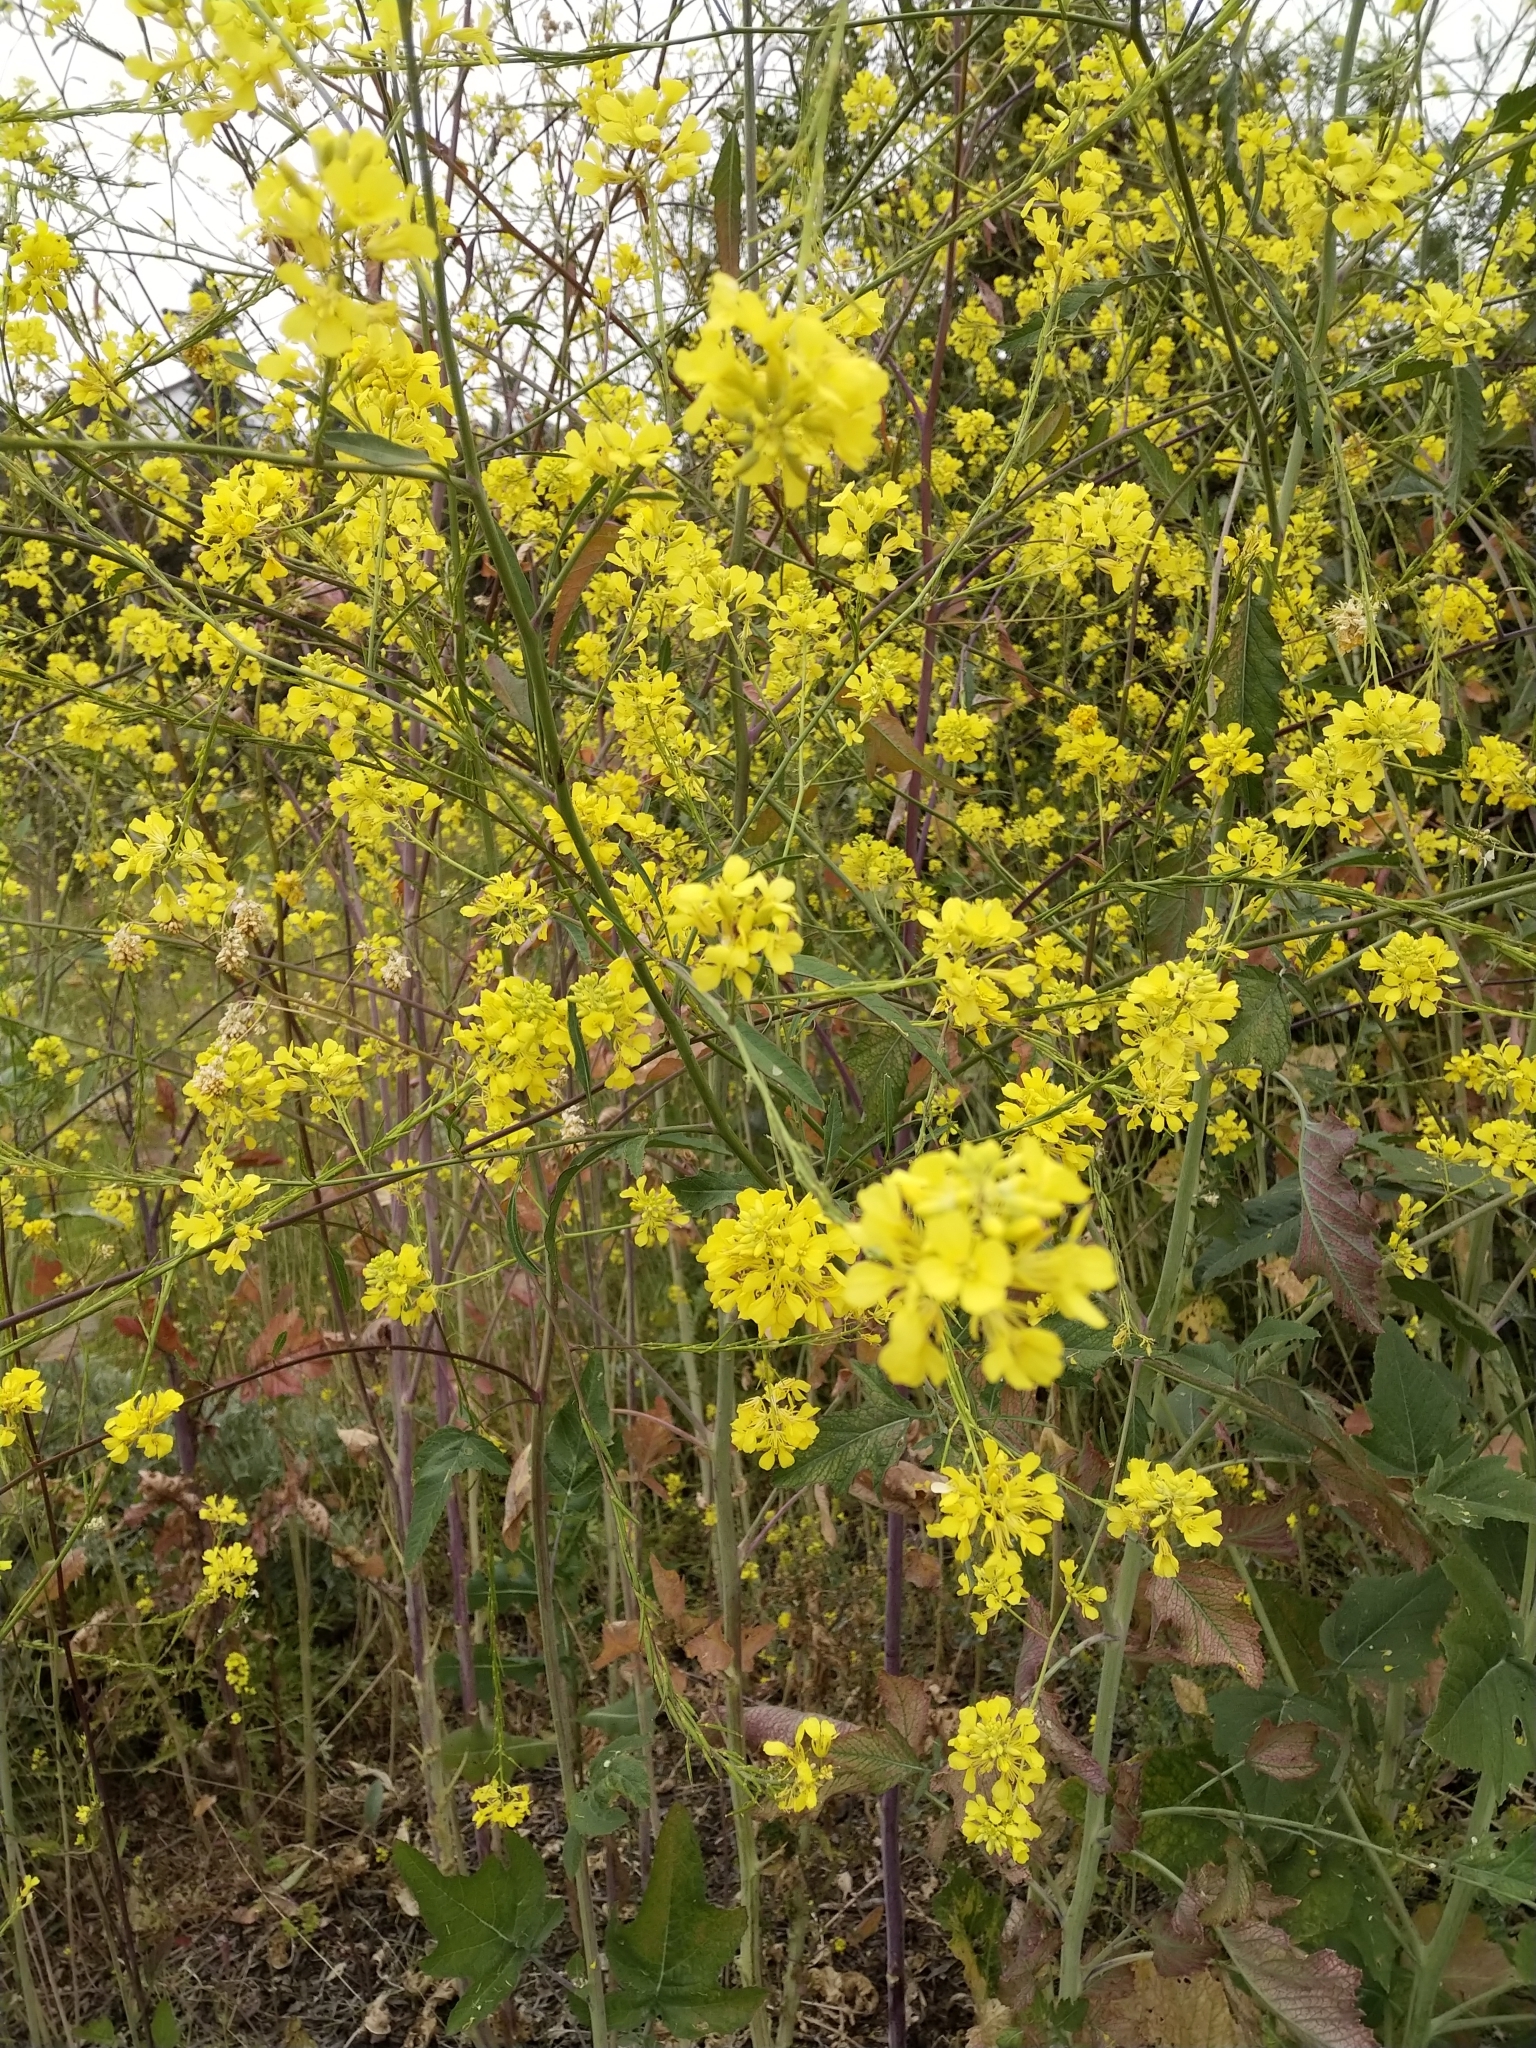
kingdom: Plantae
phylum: Tracheophyta
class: Magnoliopsida
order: Brassicales
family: Brassicaceae
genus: Brassica
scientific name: Brassica nigra
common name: Black mustard
